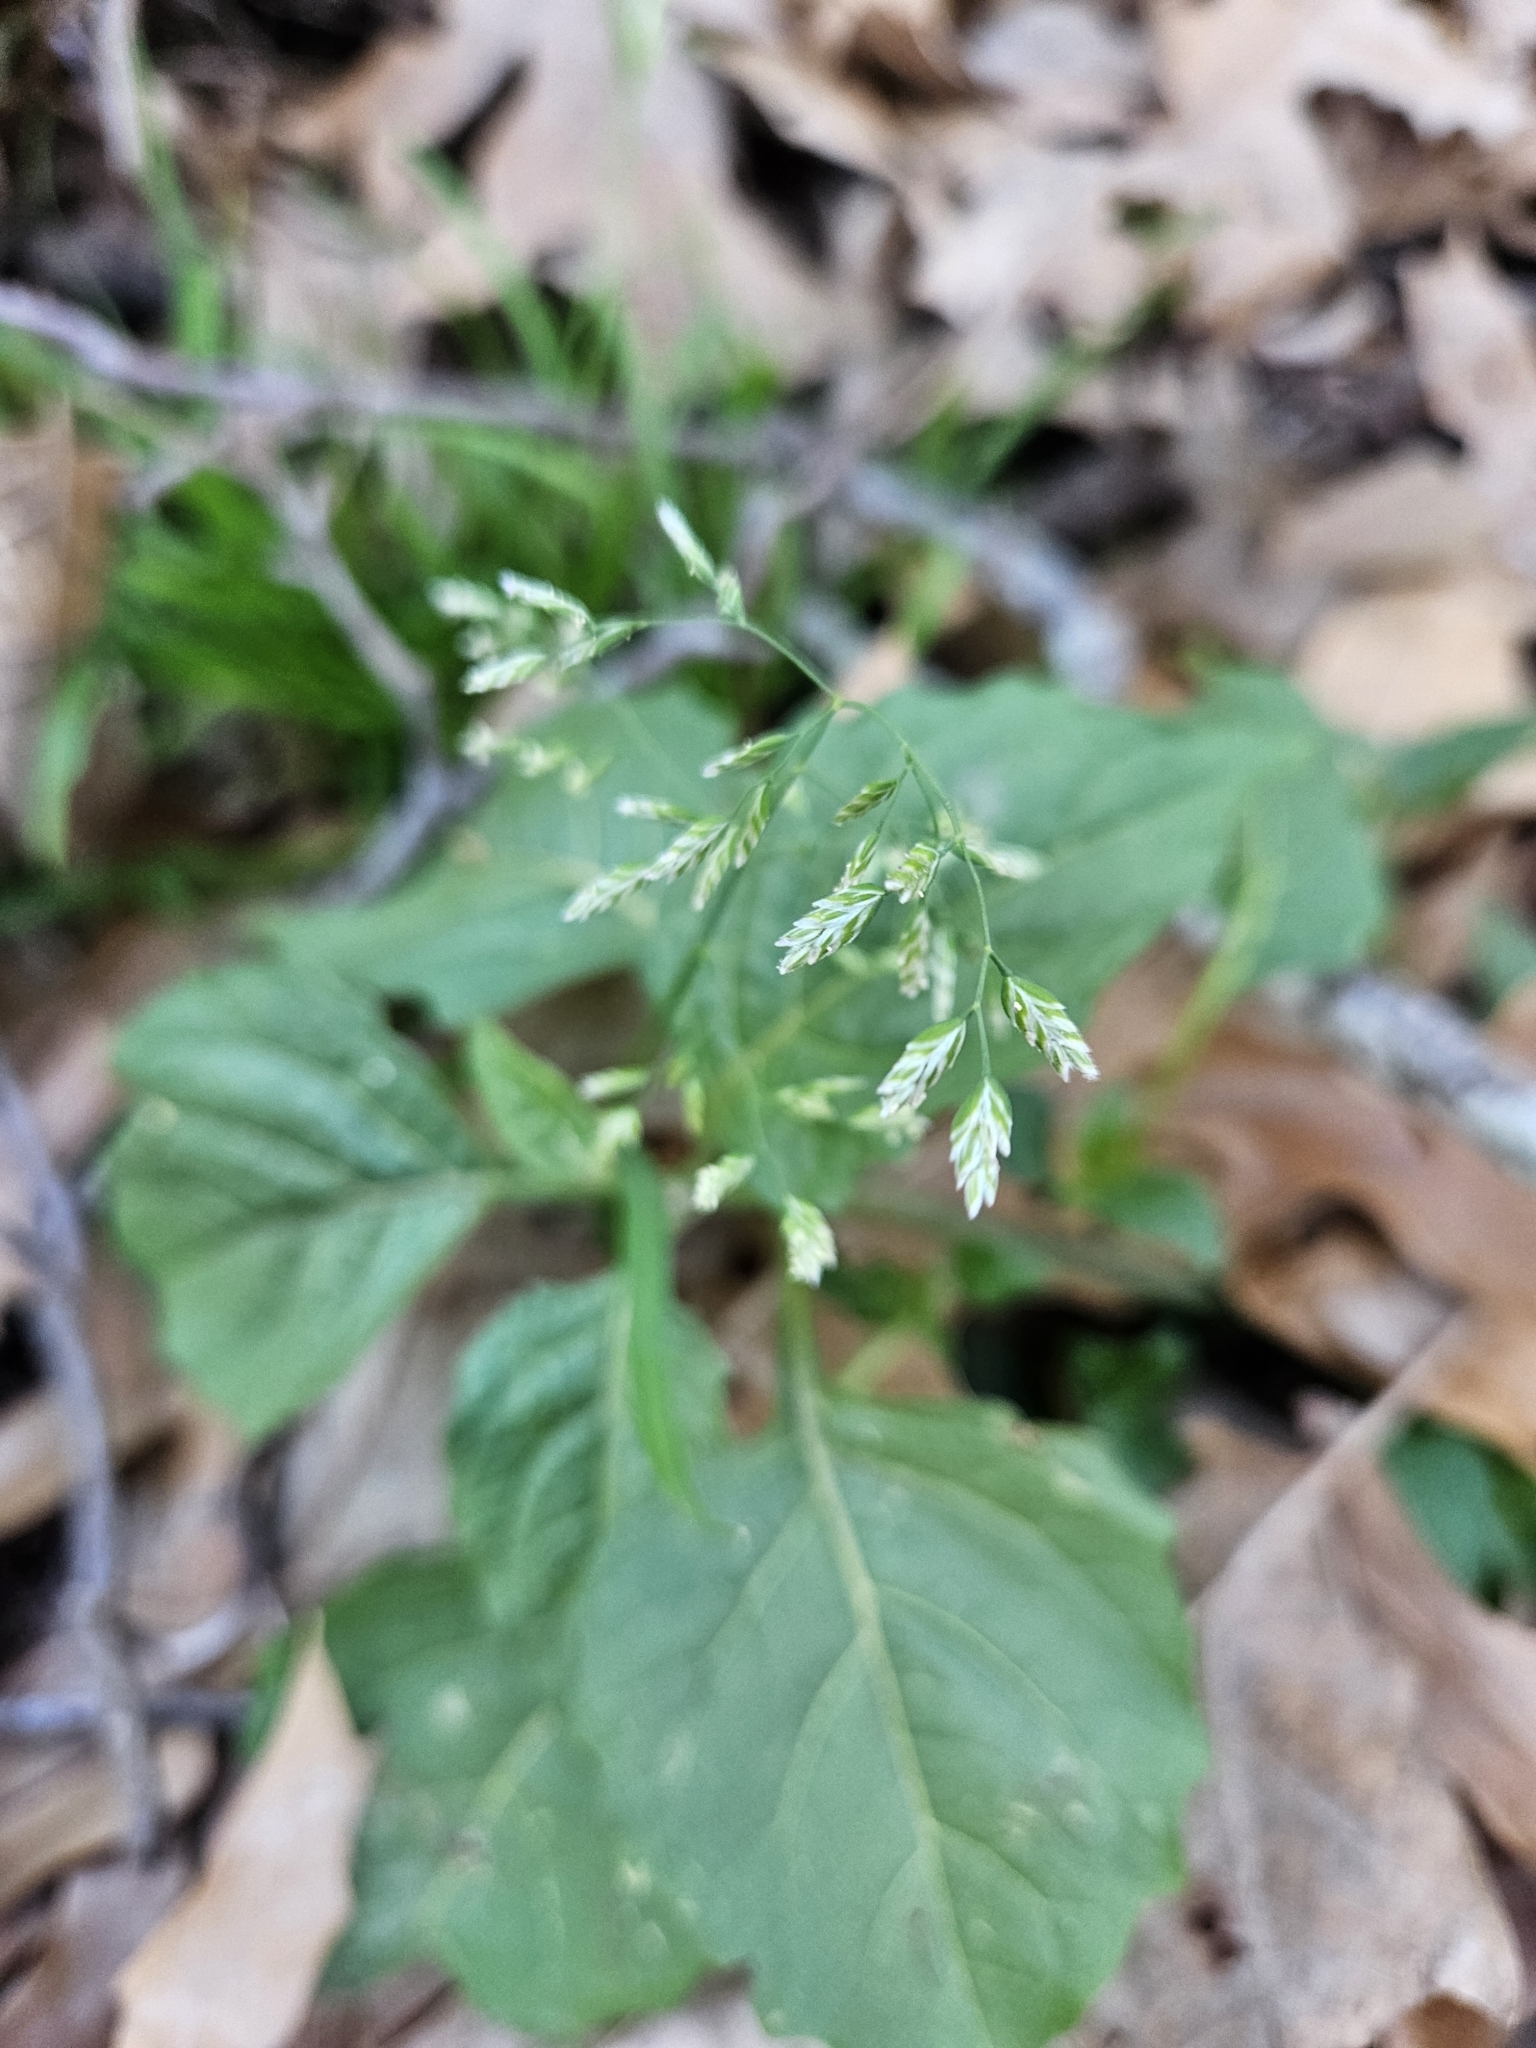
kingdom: Plantae
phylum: Tracheophyta
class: Liliopsida
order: Poales
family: Poaceae
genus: Poa
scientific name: Poa annua
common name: Annual bluegrass
